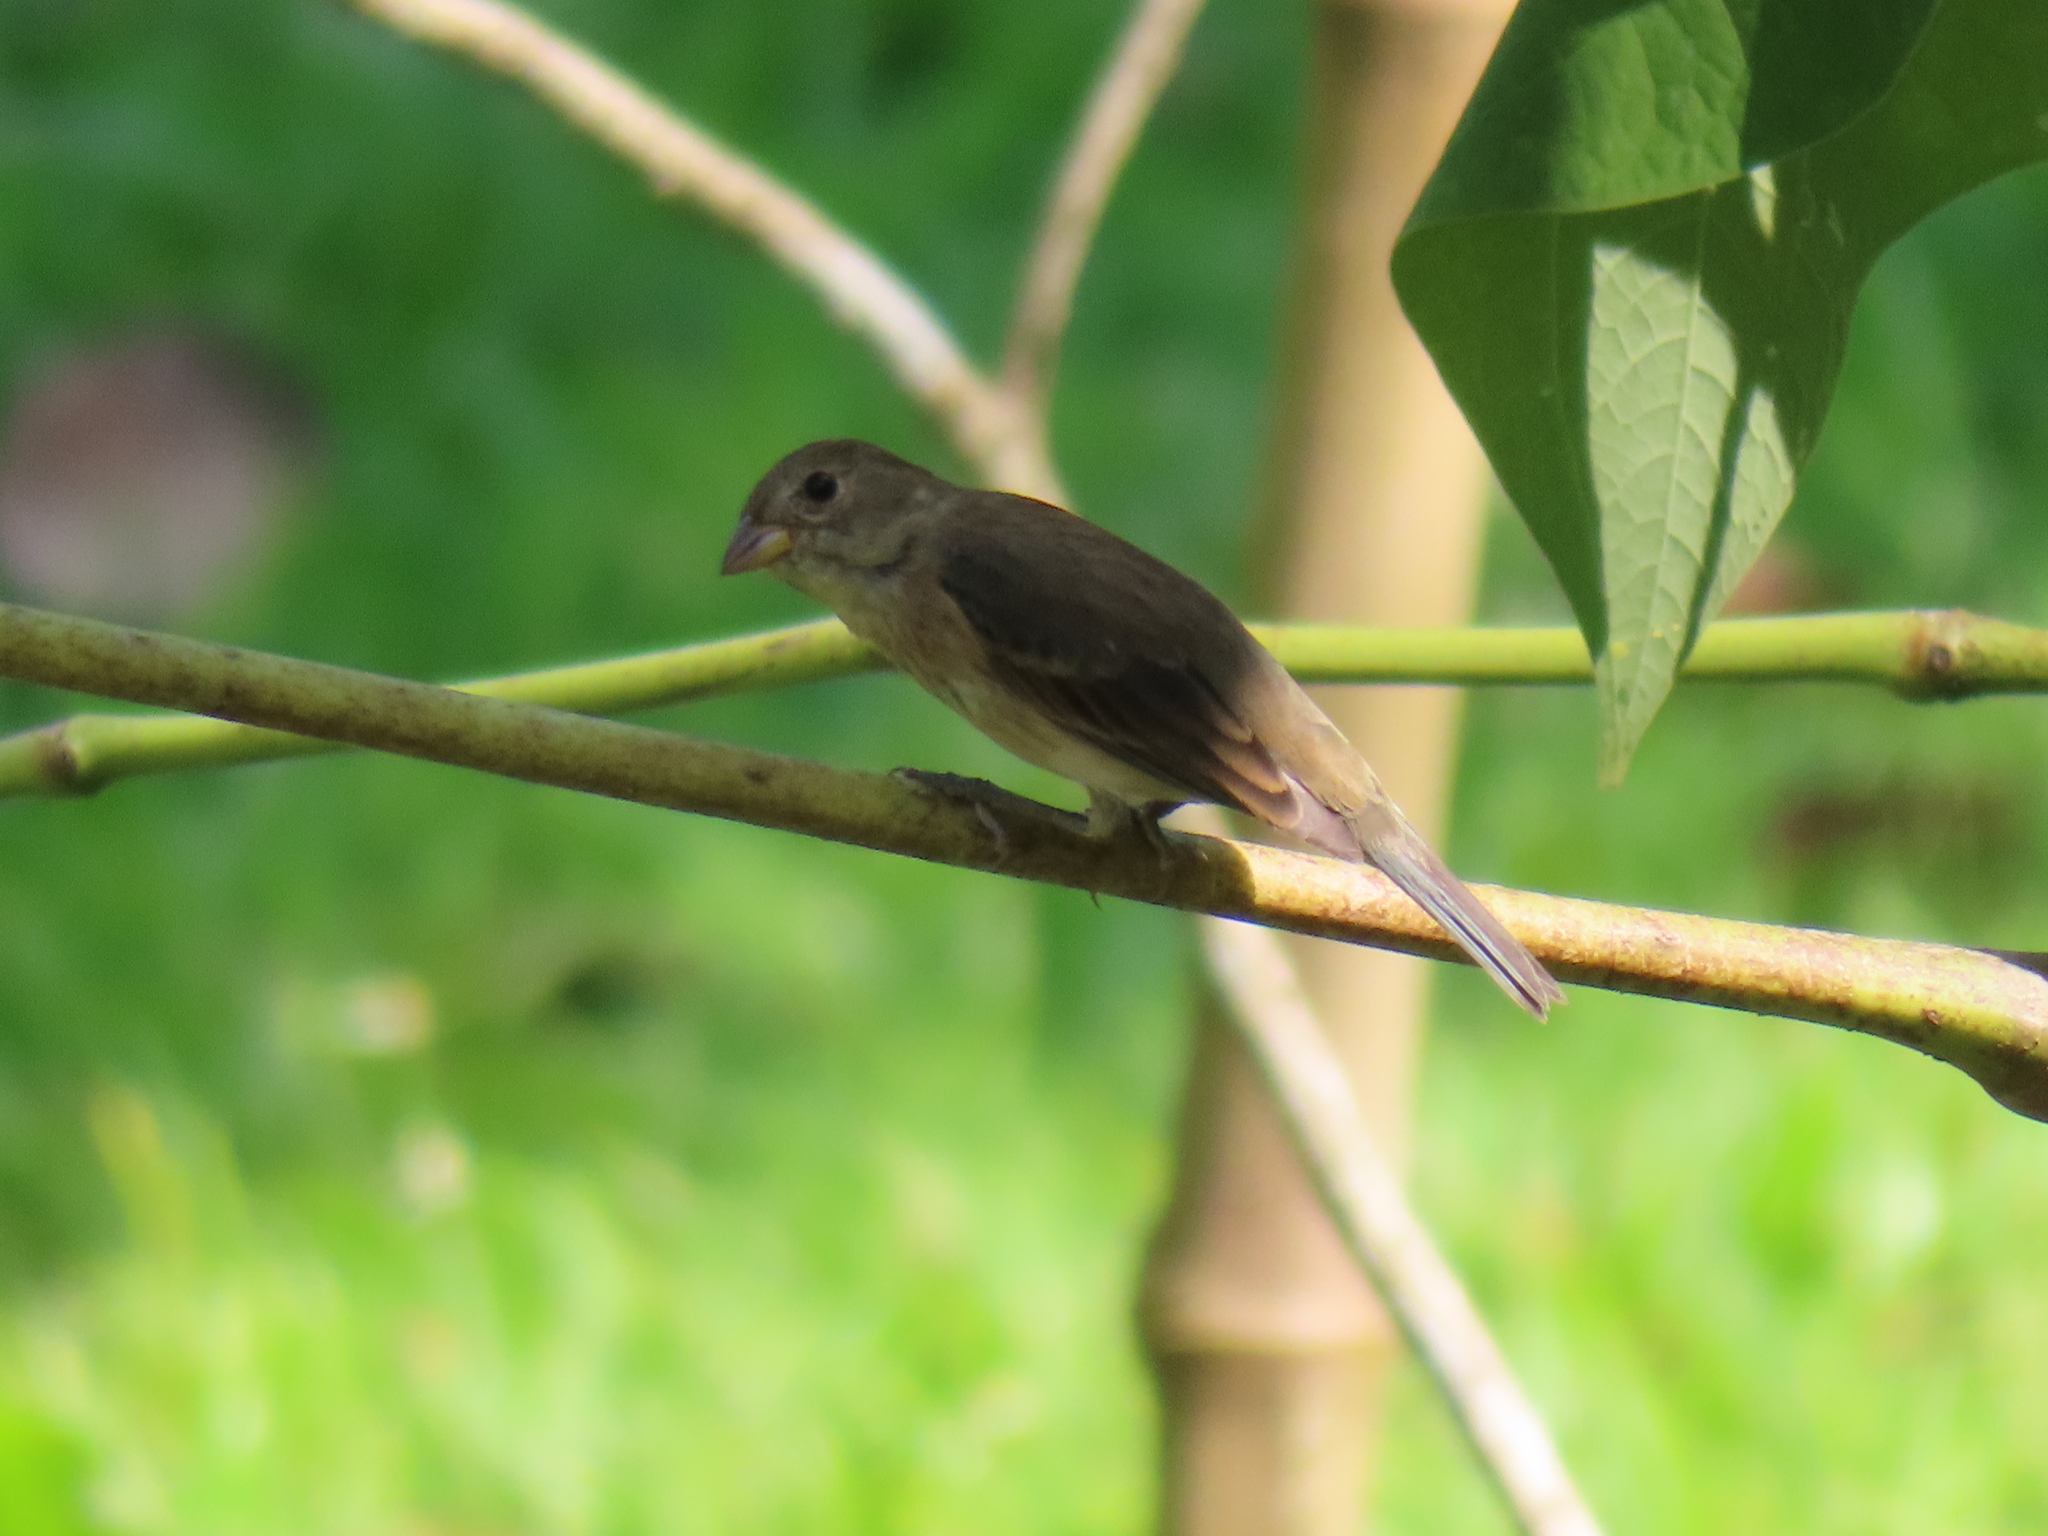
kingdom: Animalia
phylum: Chordata
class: Aves
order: Passeriformes
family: Cardinalidae
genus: Passerina
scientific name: Passerina cyanea
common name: Indigo bunting
